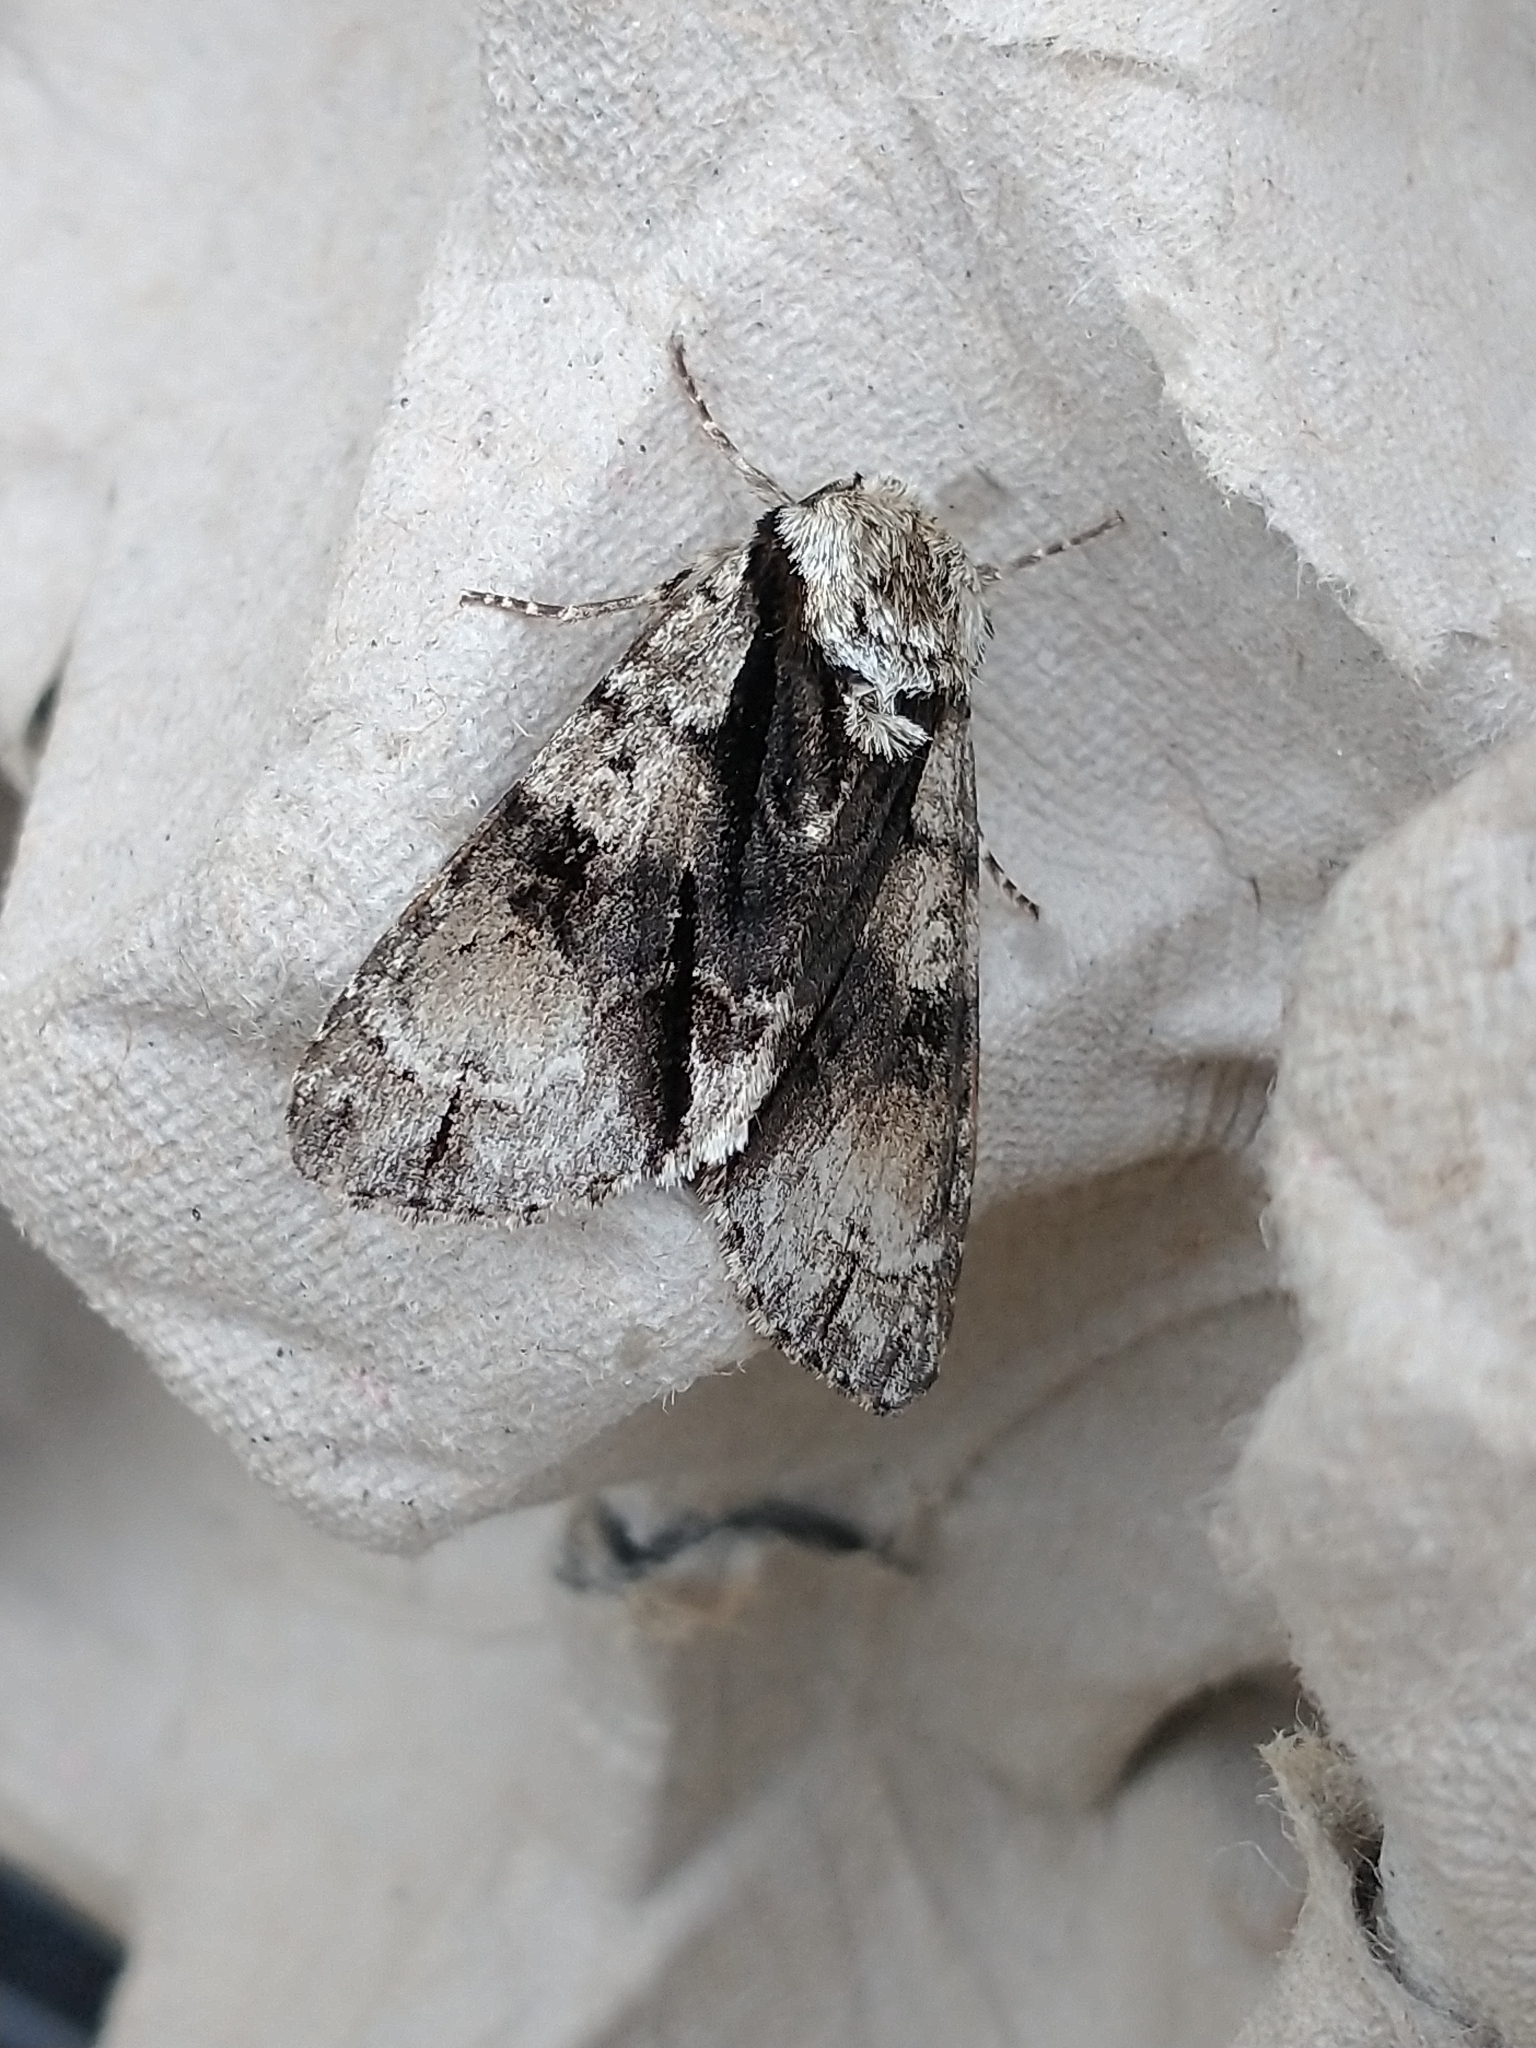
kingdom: Animalia
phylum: Arthropoda
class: Insecta
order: Lepidoptera
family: Noctuidae
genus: Acronicta
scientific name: Acronicta alni
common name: Alder moth
